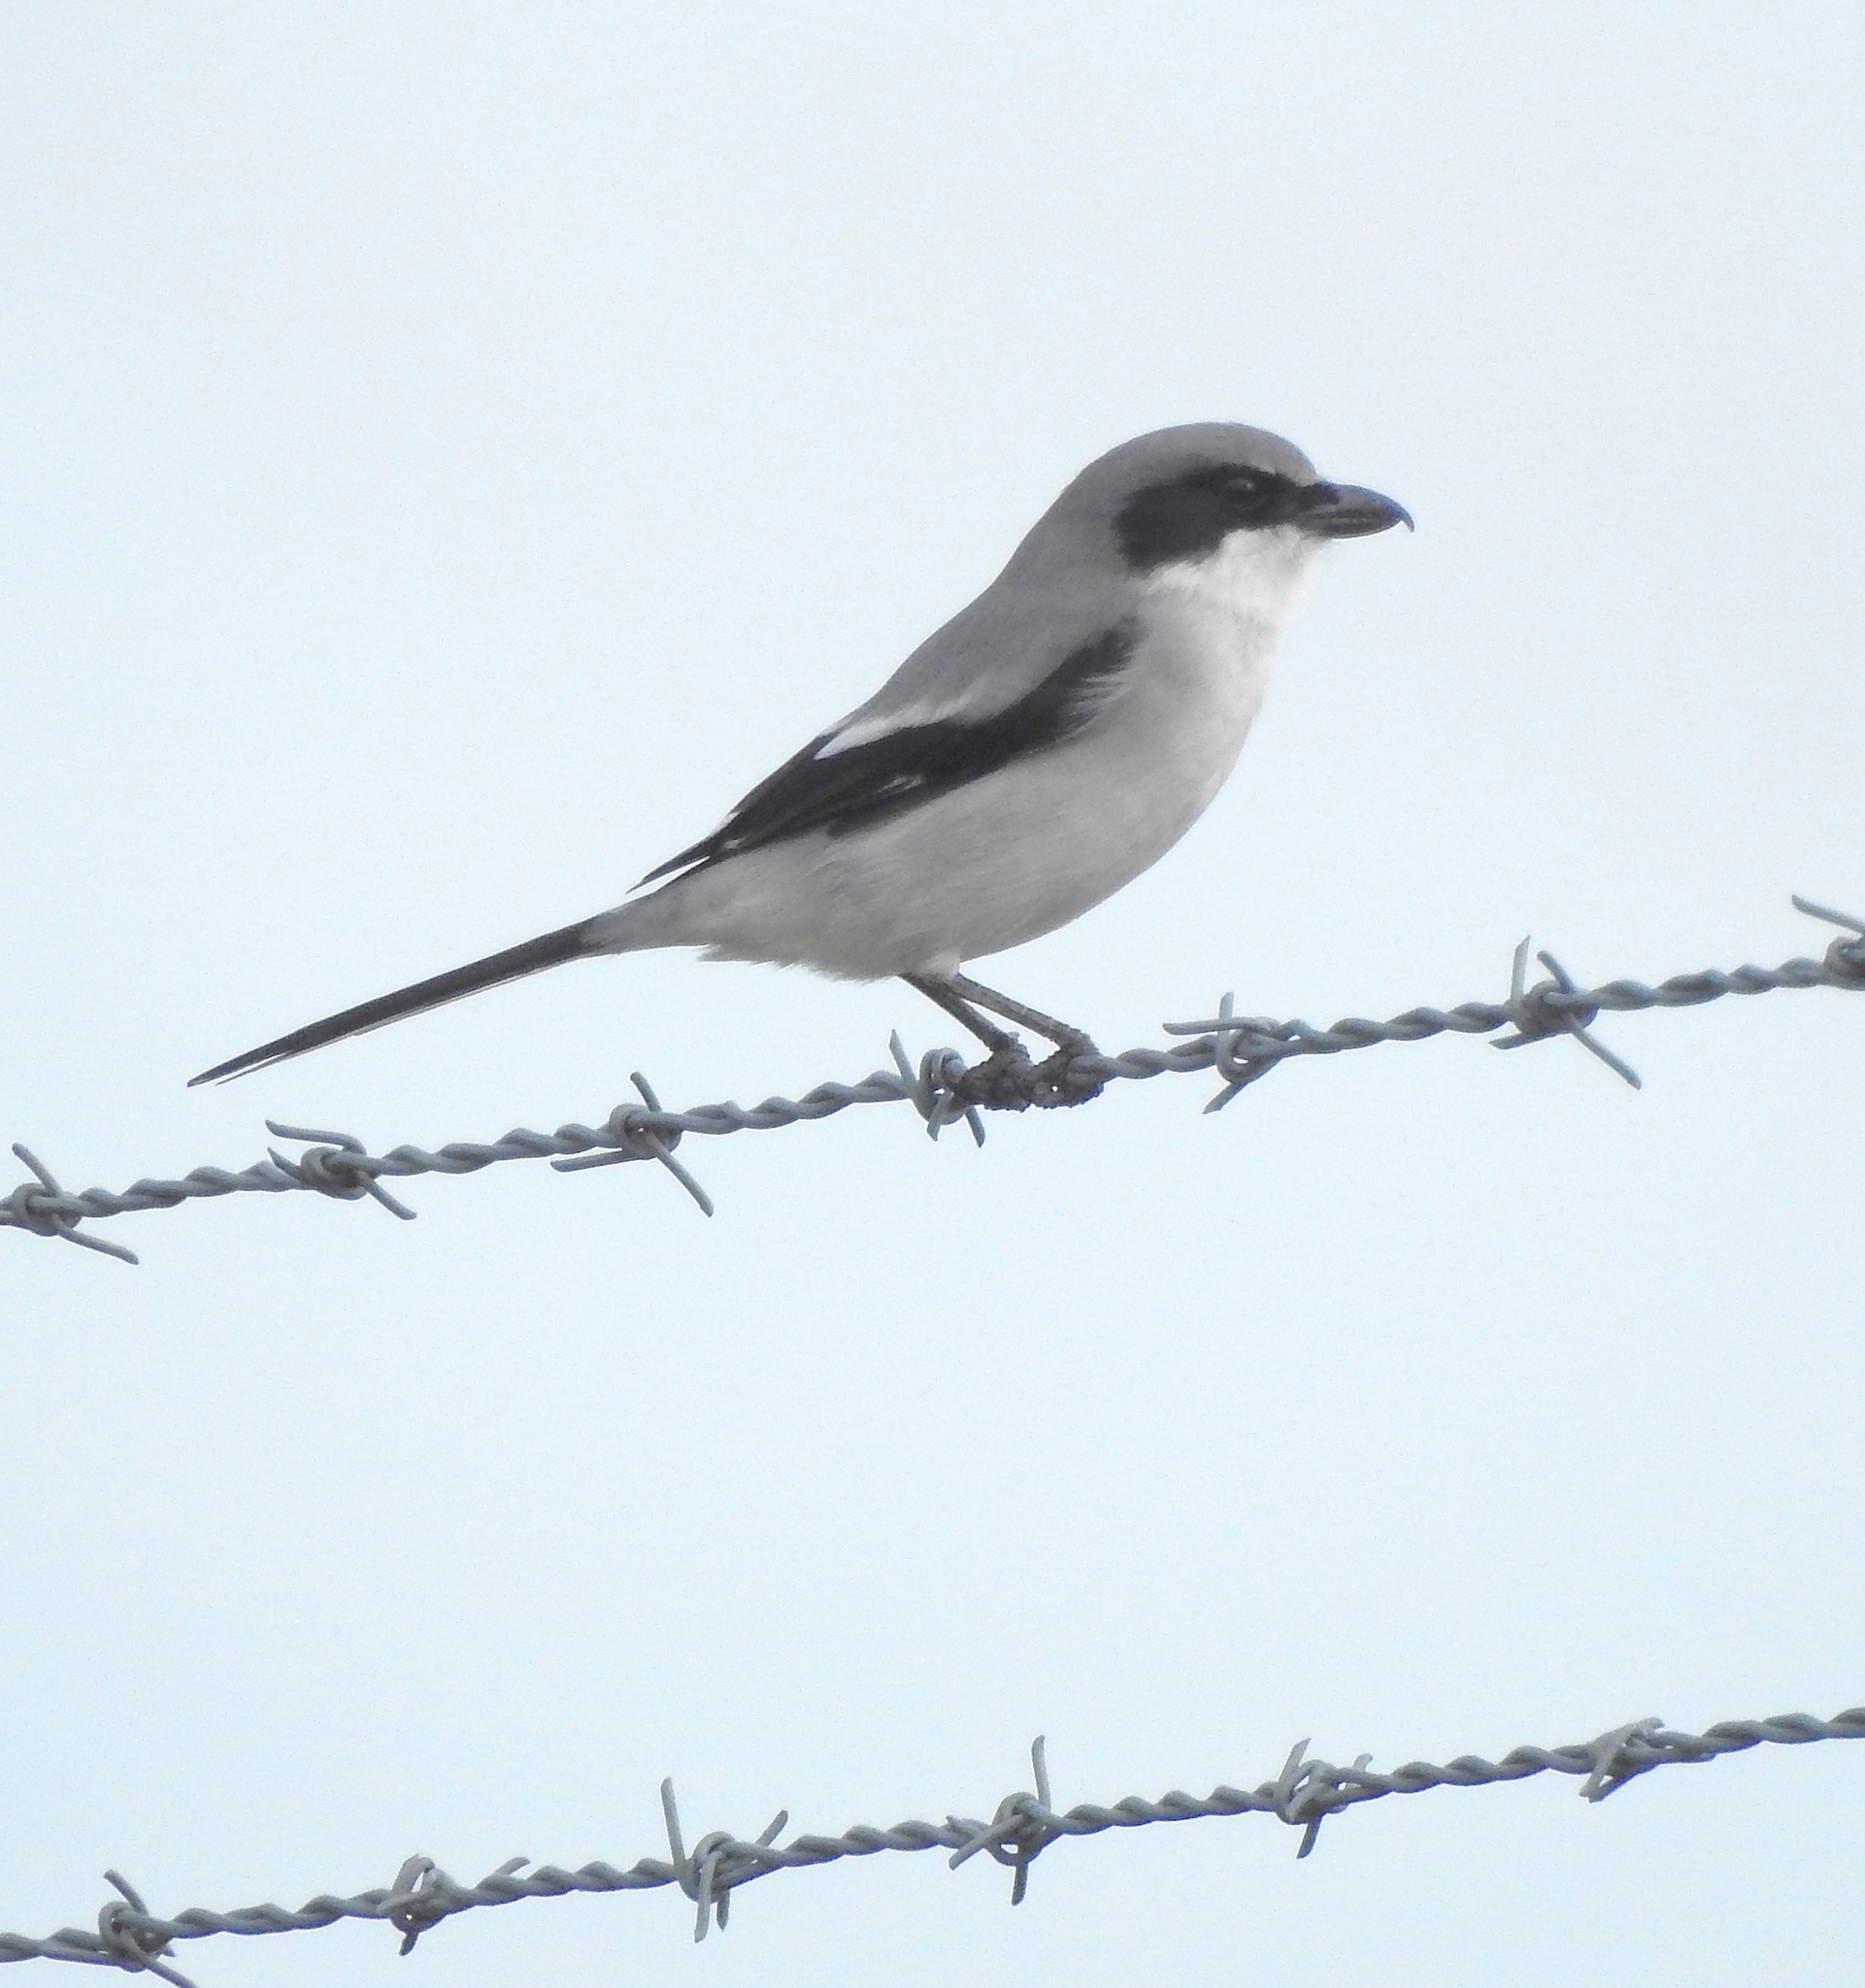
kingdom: Animalia
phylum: Chordata
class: Aves
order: Passeriformes
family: Laniidae
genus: Lanius
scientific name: Lanius ludovicianus
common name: Loggerhead shrike
